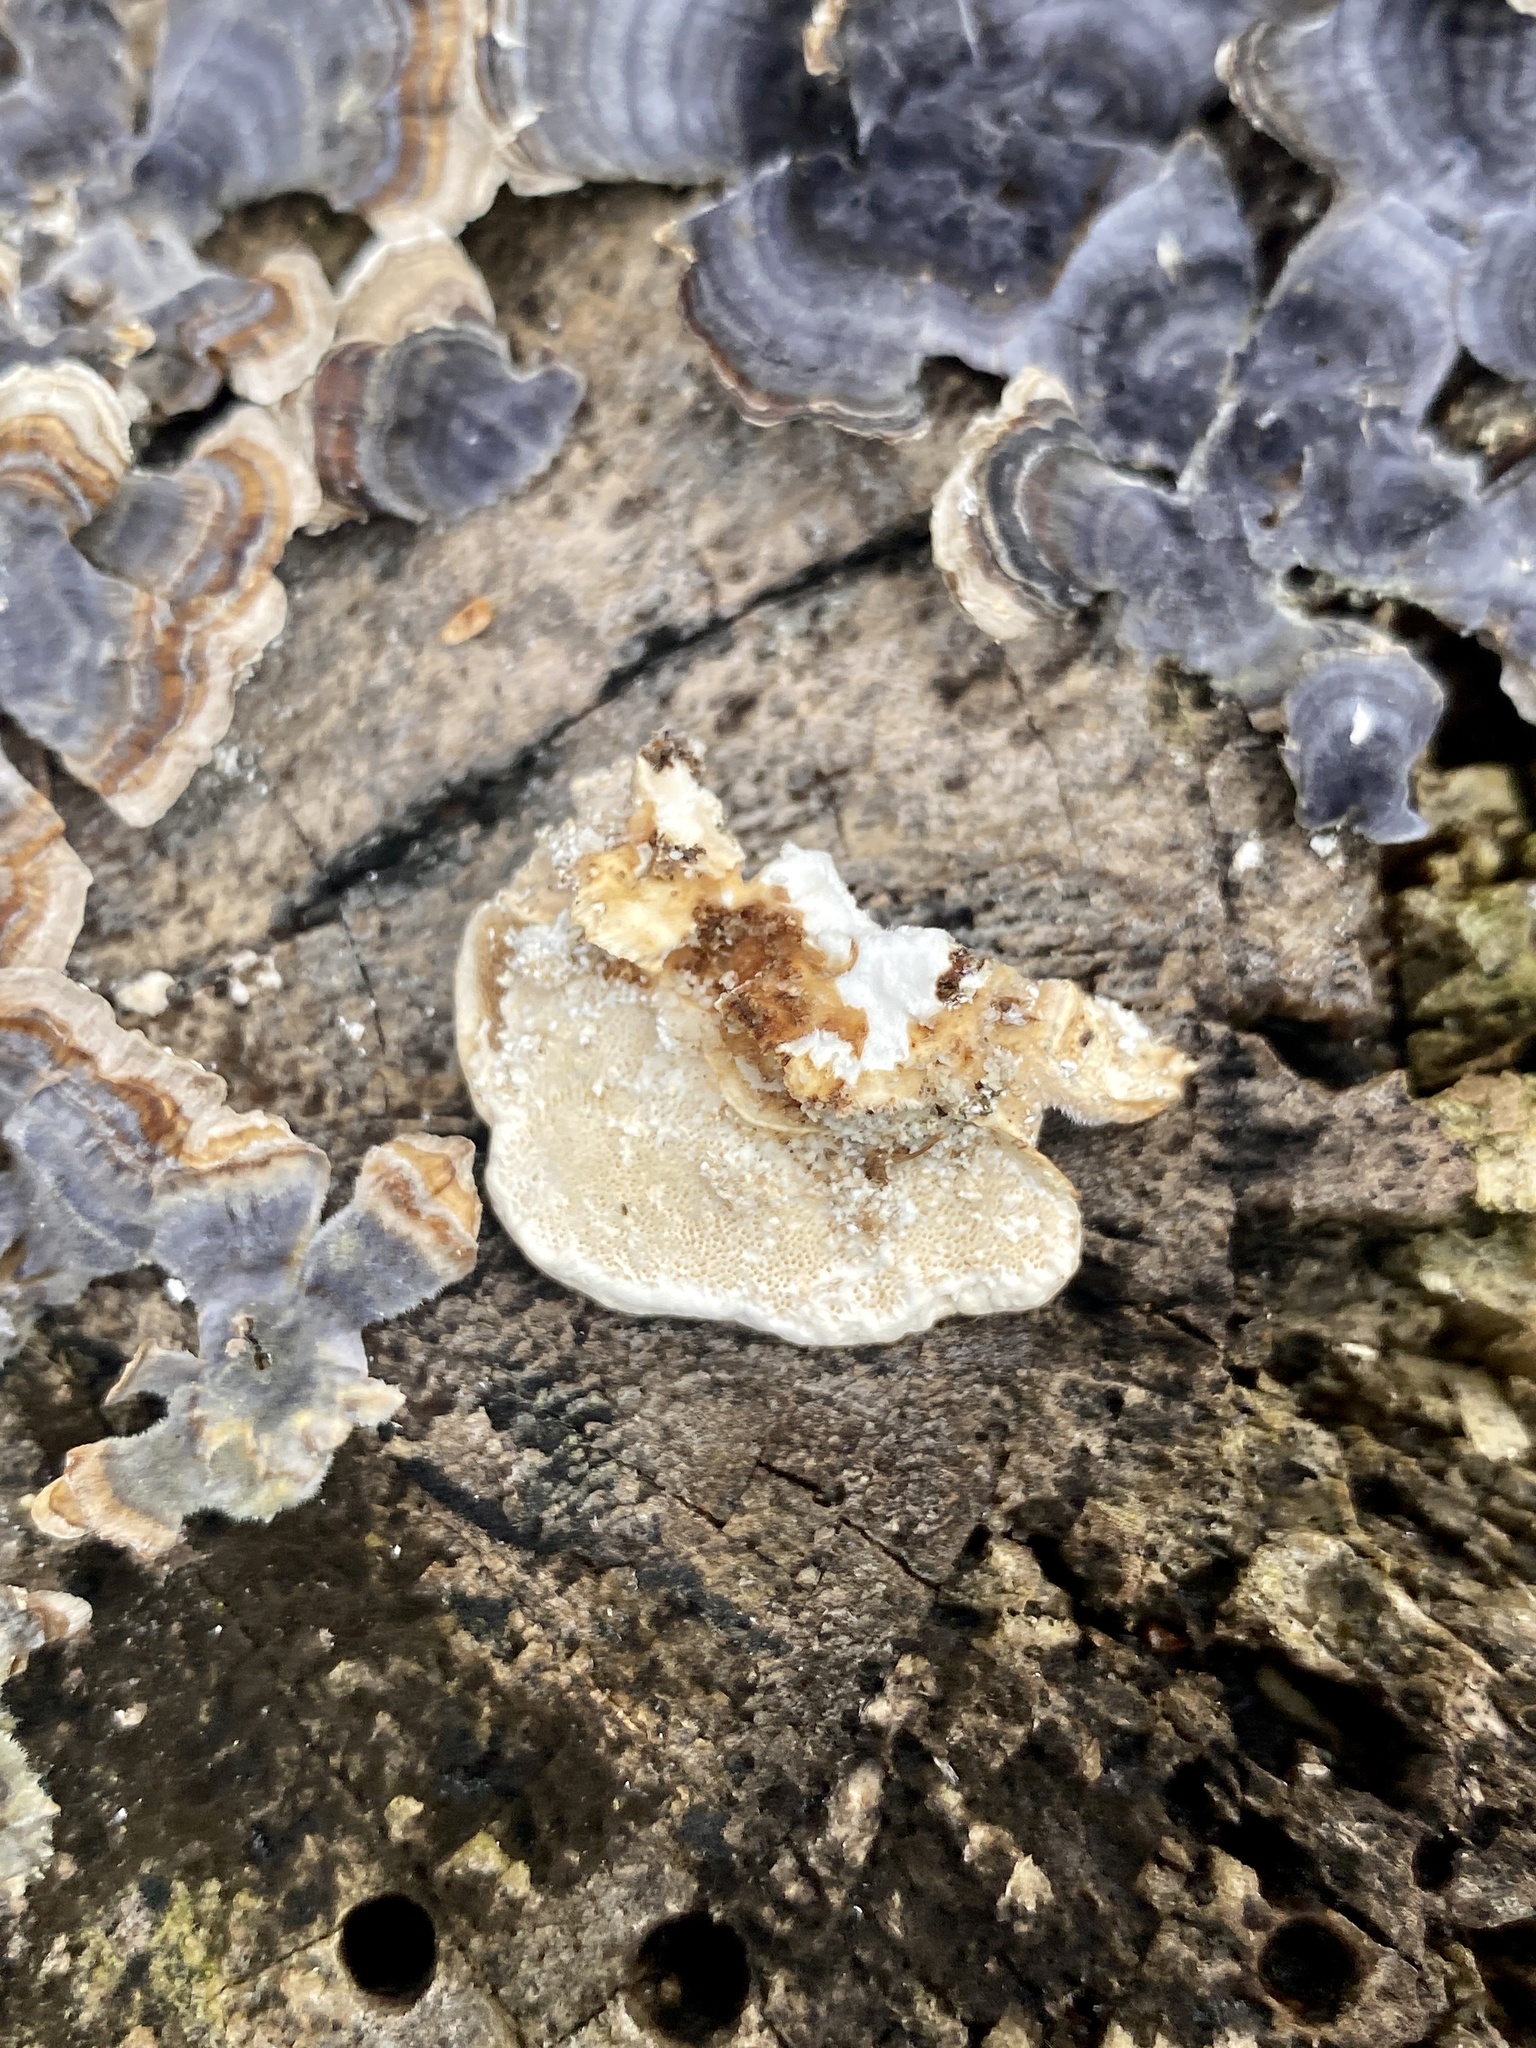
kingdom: Fungi
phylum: Basidiomycota
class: Agaricomycetes
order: Polyporales
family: Polyporaceae
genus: Trametes
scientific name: Trametes versicolor
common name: Turkeytail
